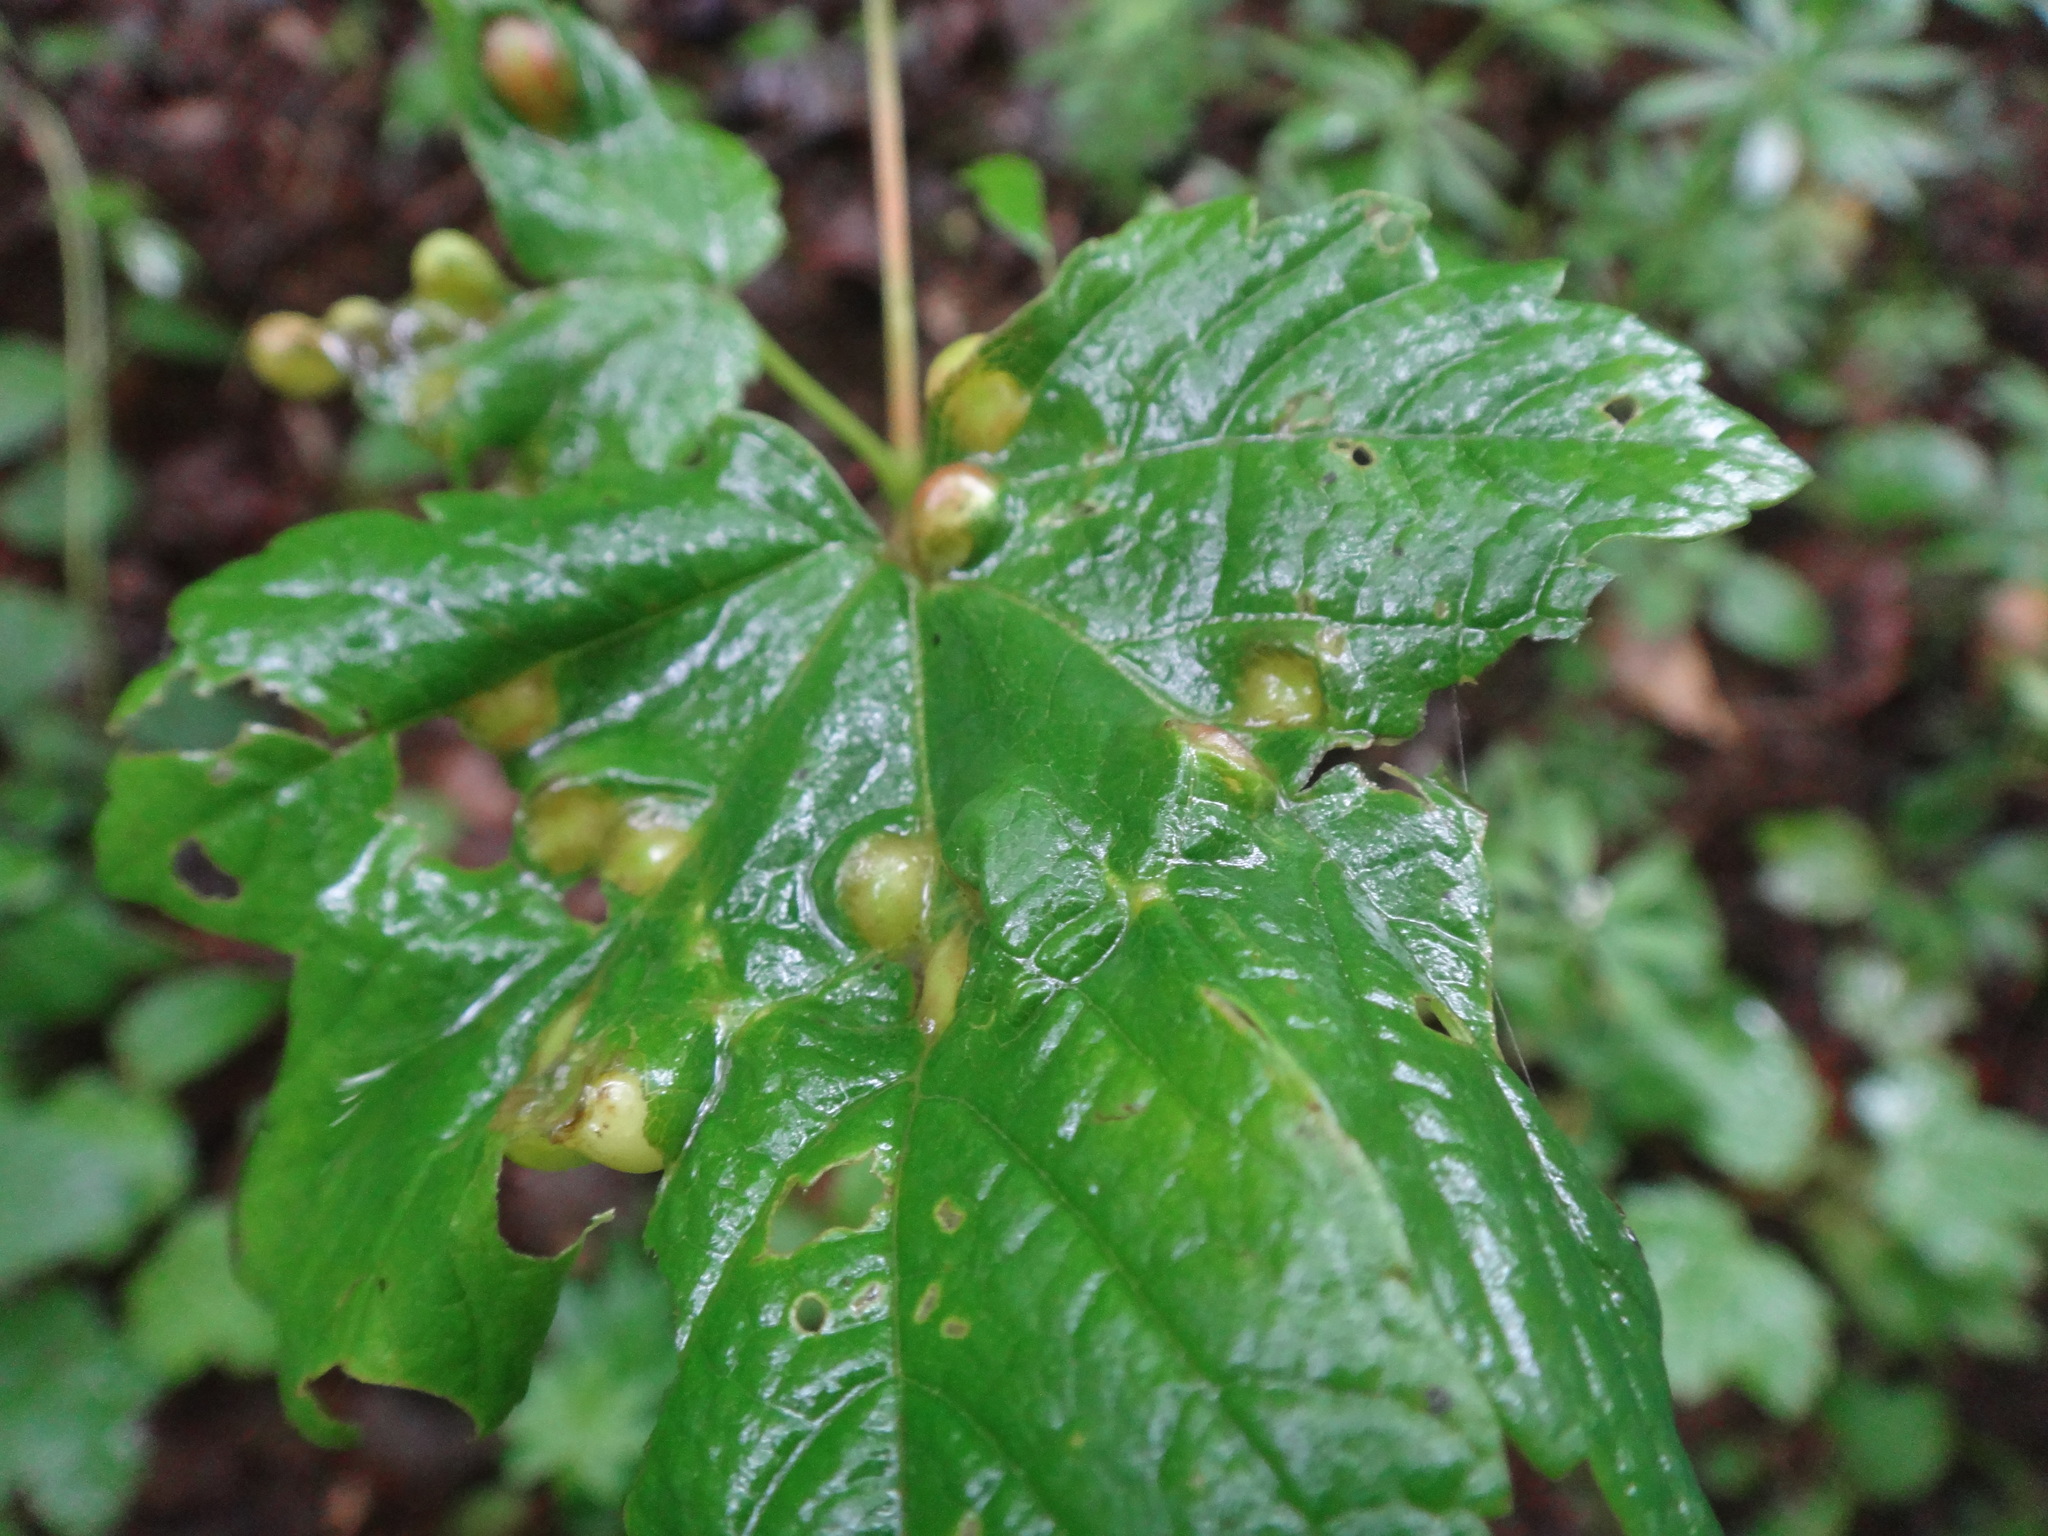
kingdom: Animalia
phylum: Arthropoda
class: Insecta
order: Hymenoptera
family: Cynipidae
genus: Pediaspis
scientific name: Pediaspis aceris
